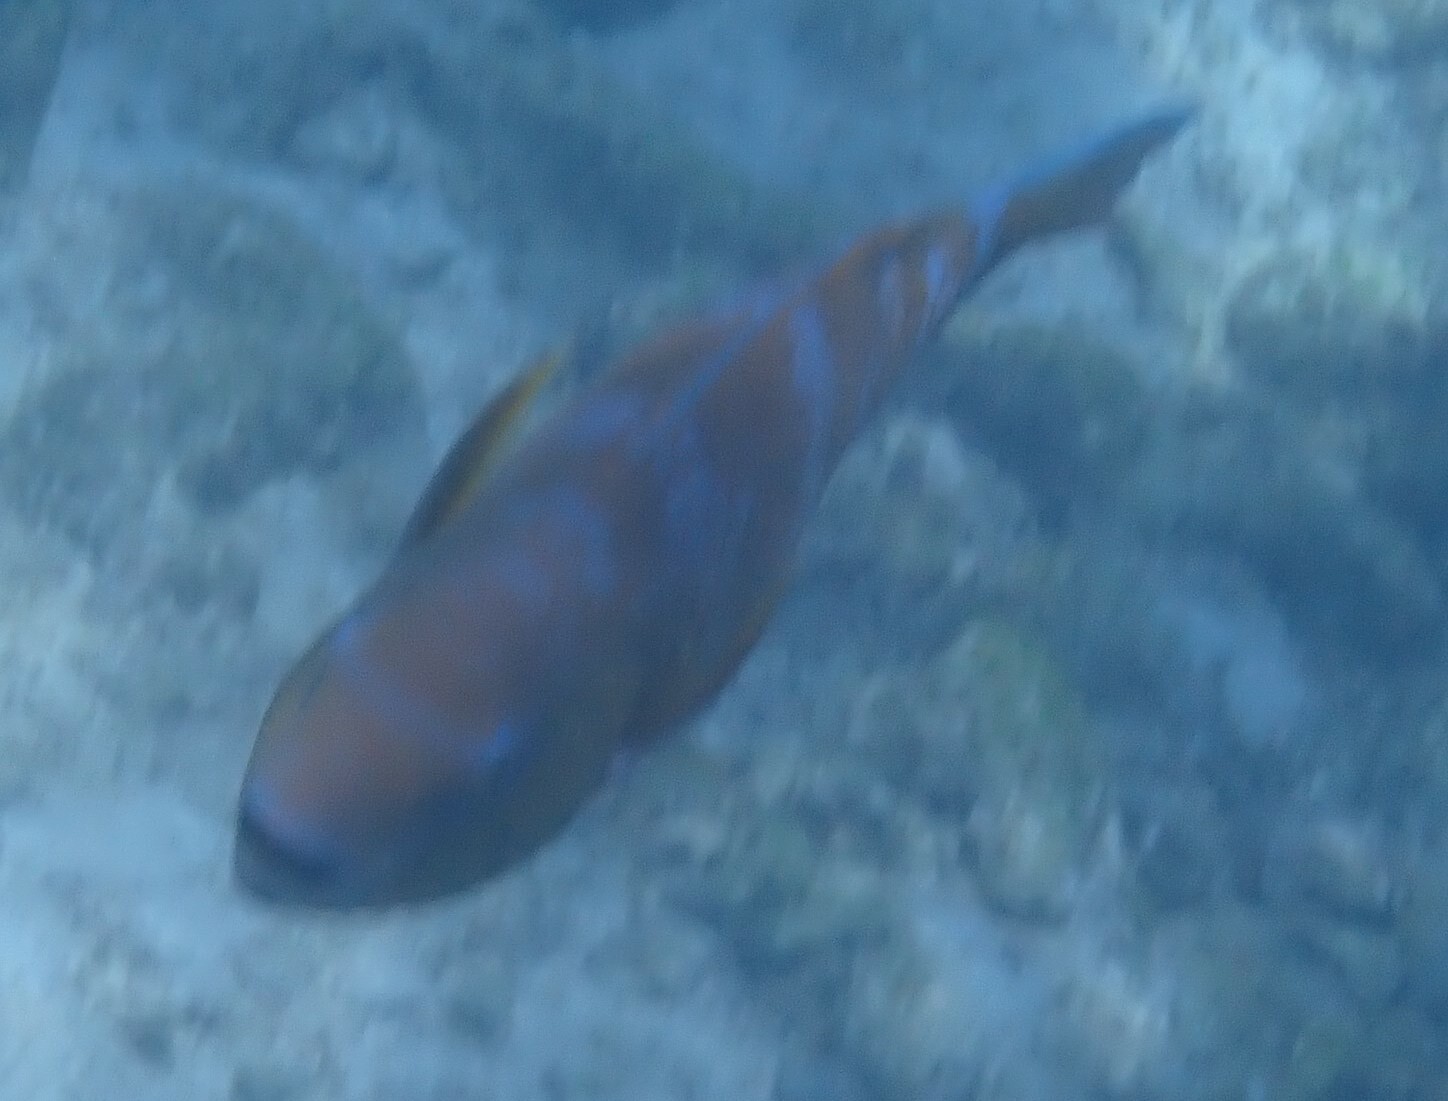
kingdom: Animalia
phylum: Chordata
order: Perciformes
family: Scaridae
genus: Scarus
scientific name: Scarus ghobban
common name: Blue-barred parrotfish
